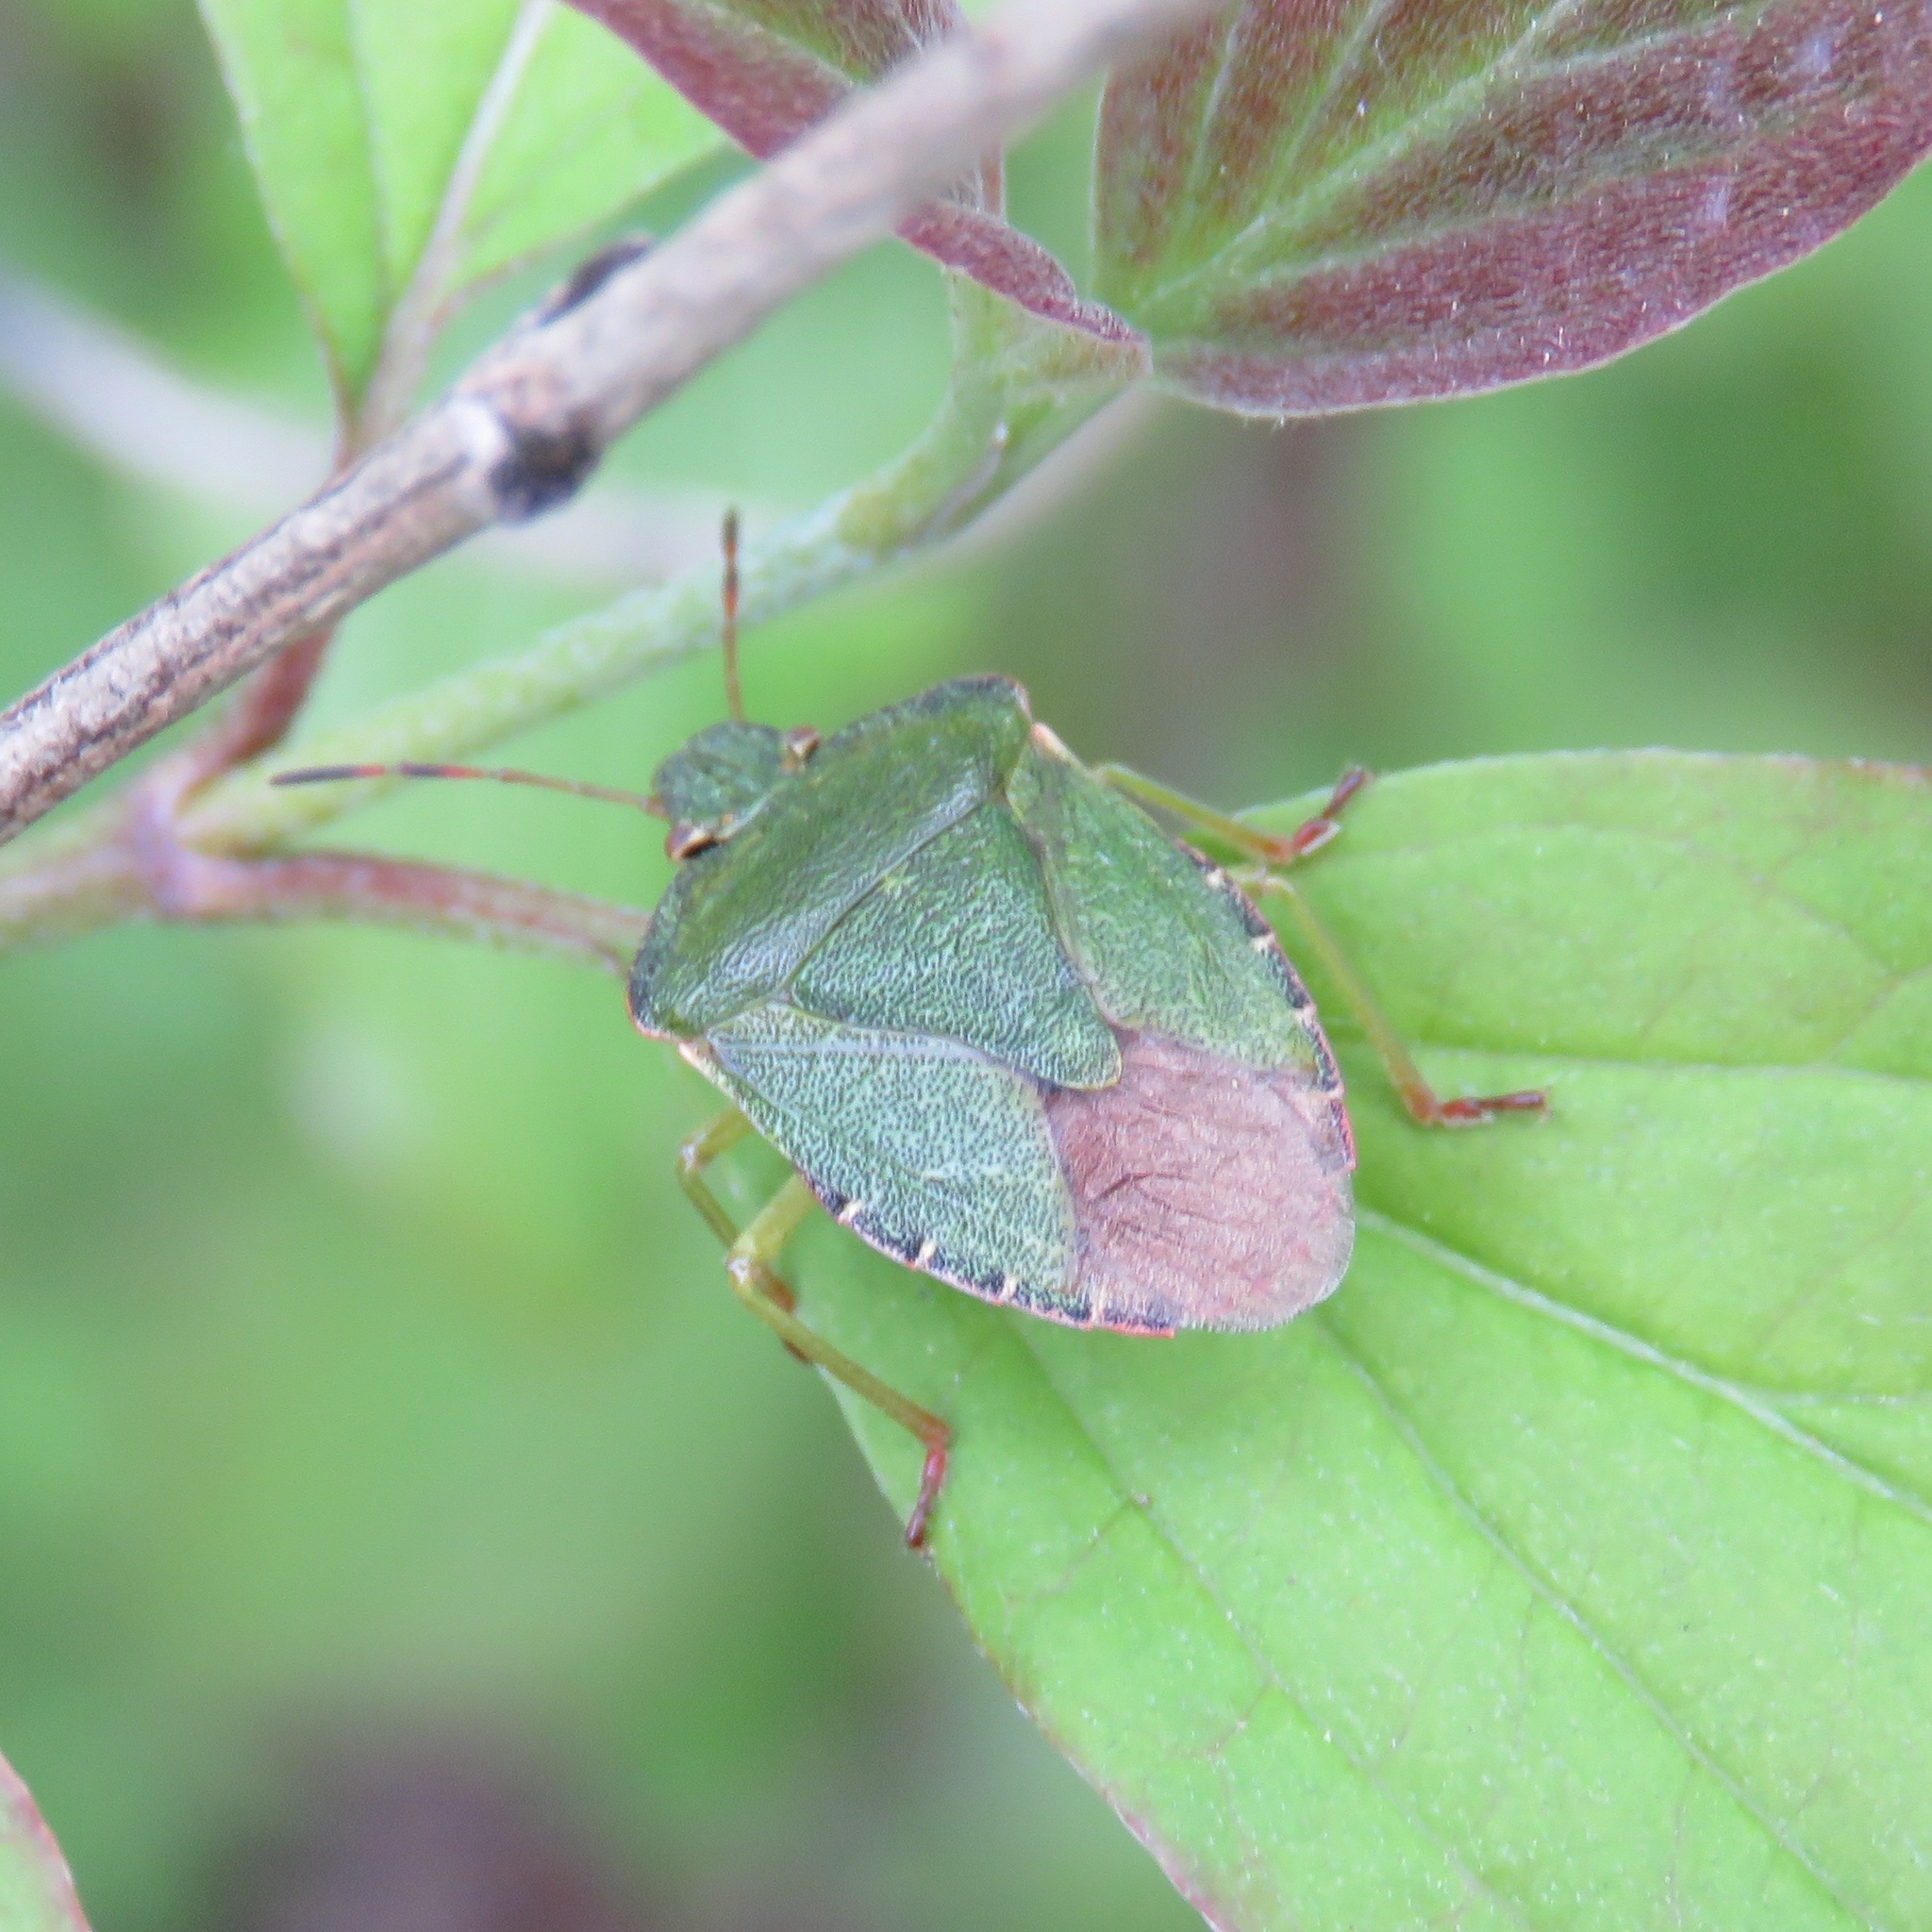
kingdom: Animalia
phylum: Arthropoda
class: Insecta
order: Hemiptera
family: Pentatomidae
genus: Palomena
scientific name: Palomena prasina
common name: Green shieldbug
